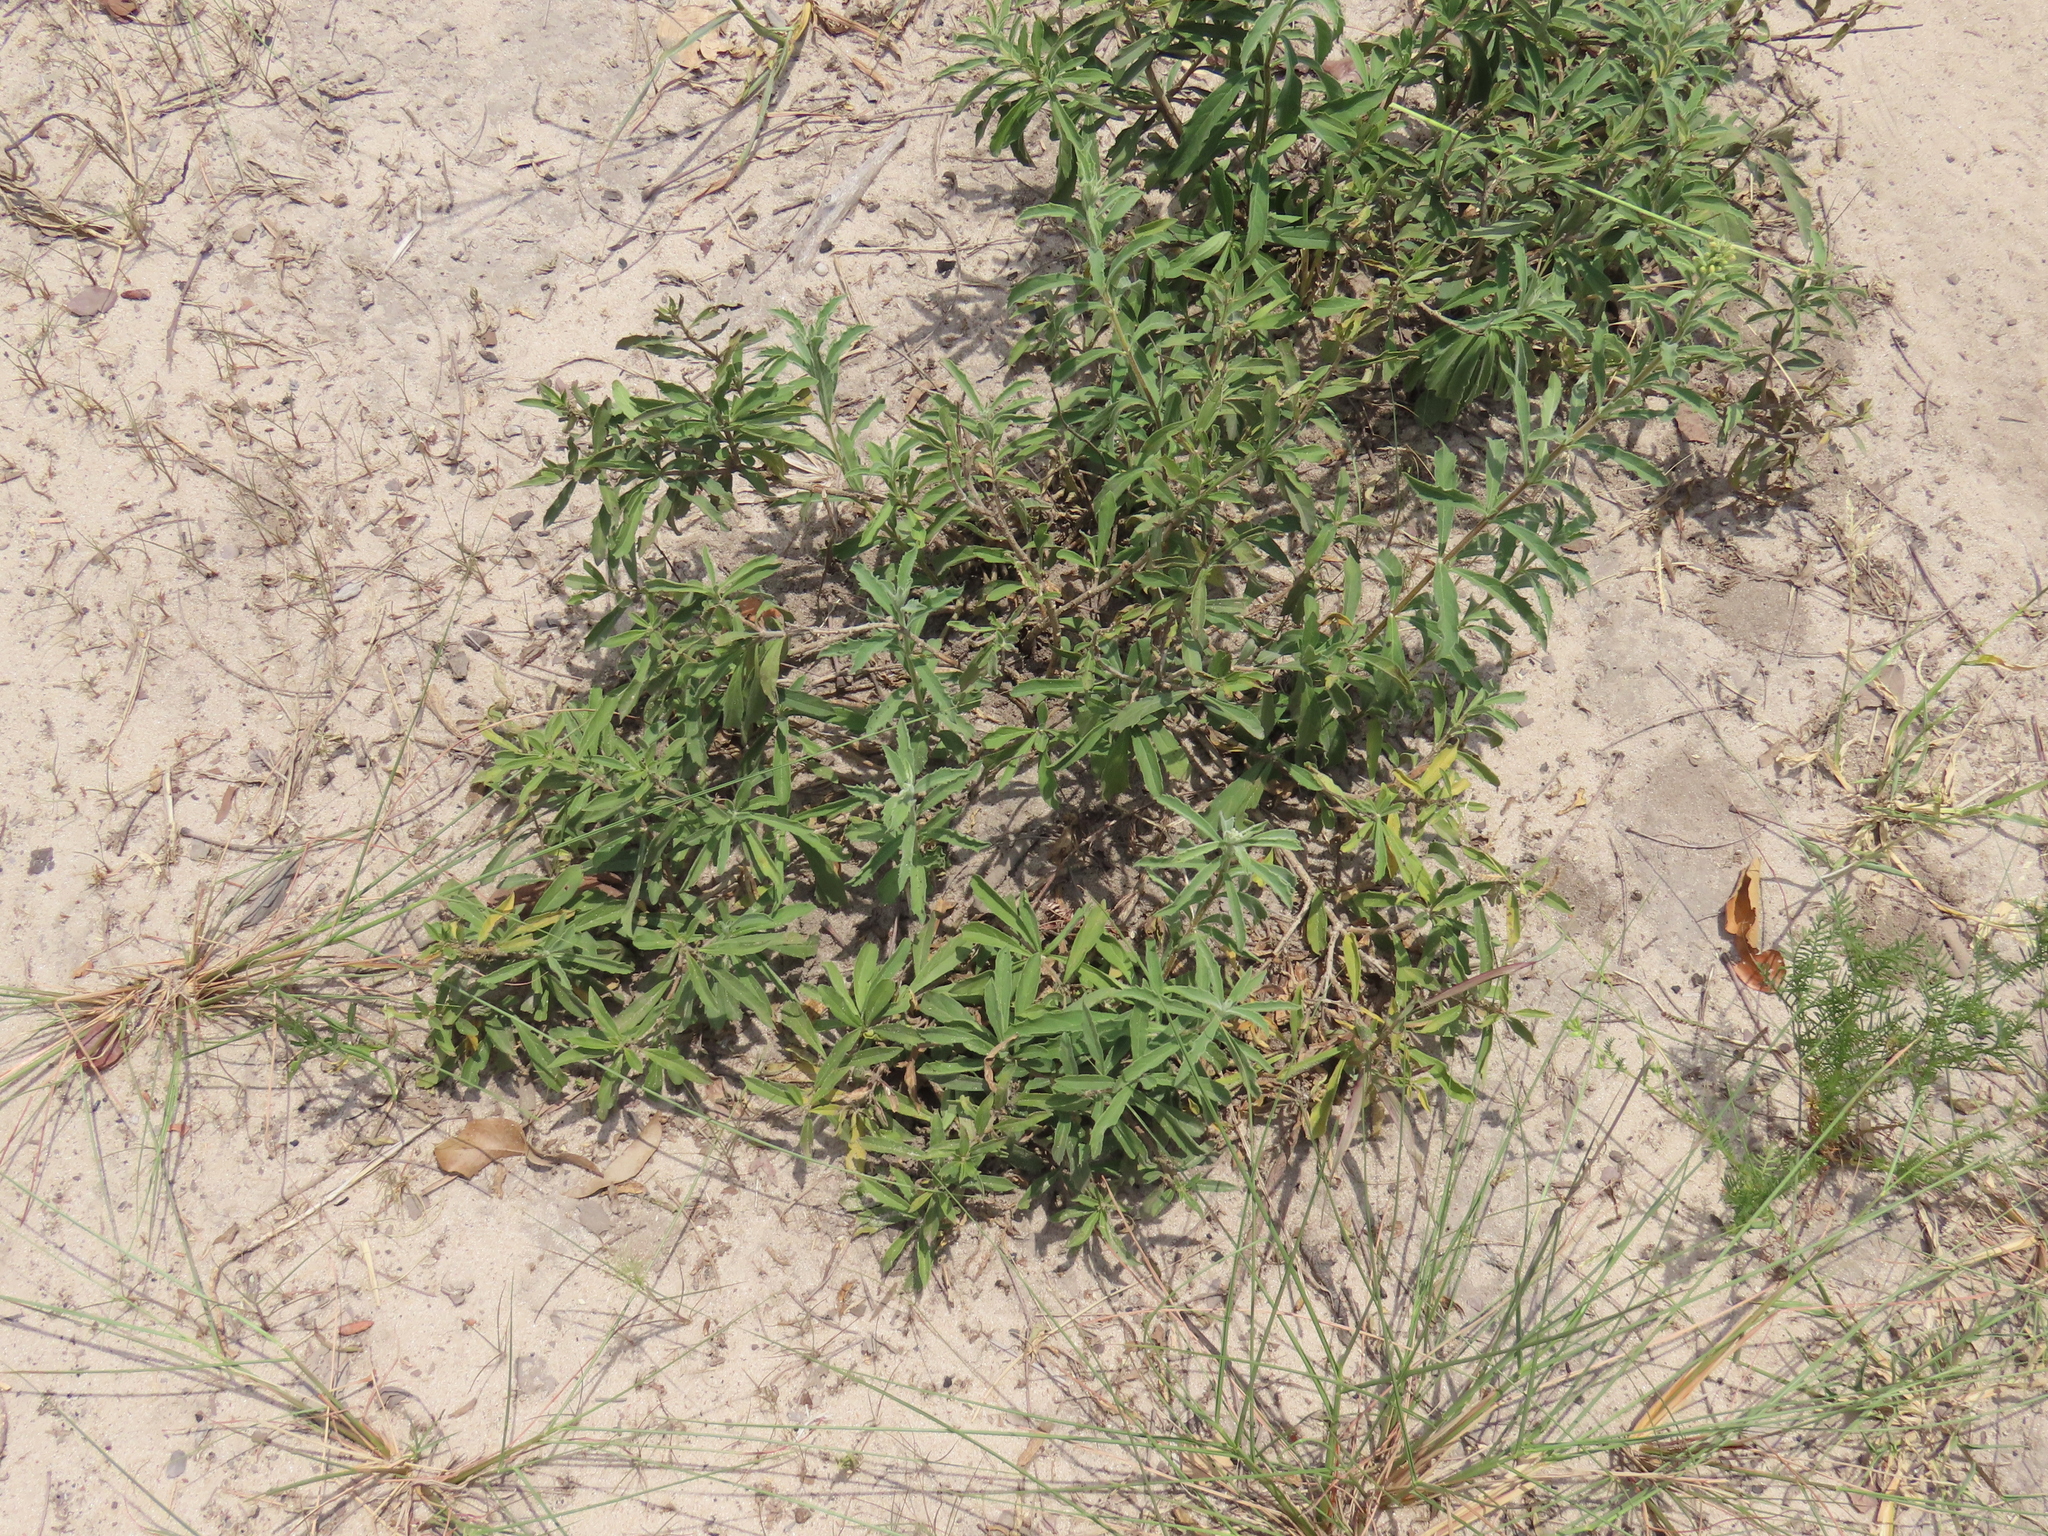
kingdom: Plantae
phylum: Tracheophyta
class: Magnoliopsida
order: Lamiales
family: Lamiaceae
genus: Clerodendrum
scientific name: Clerodendrum ternatum
